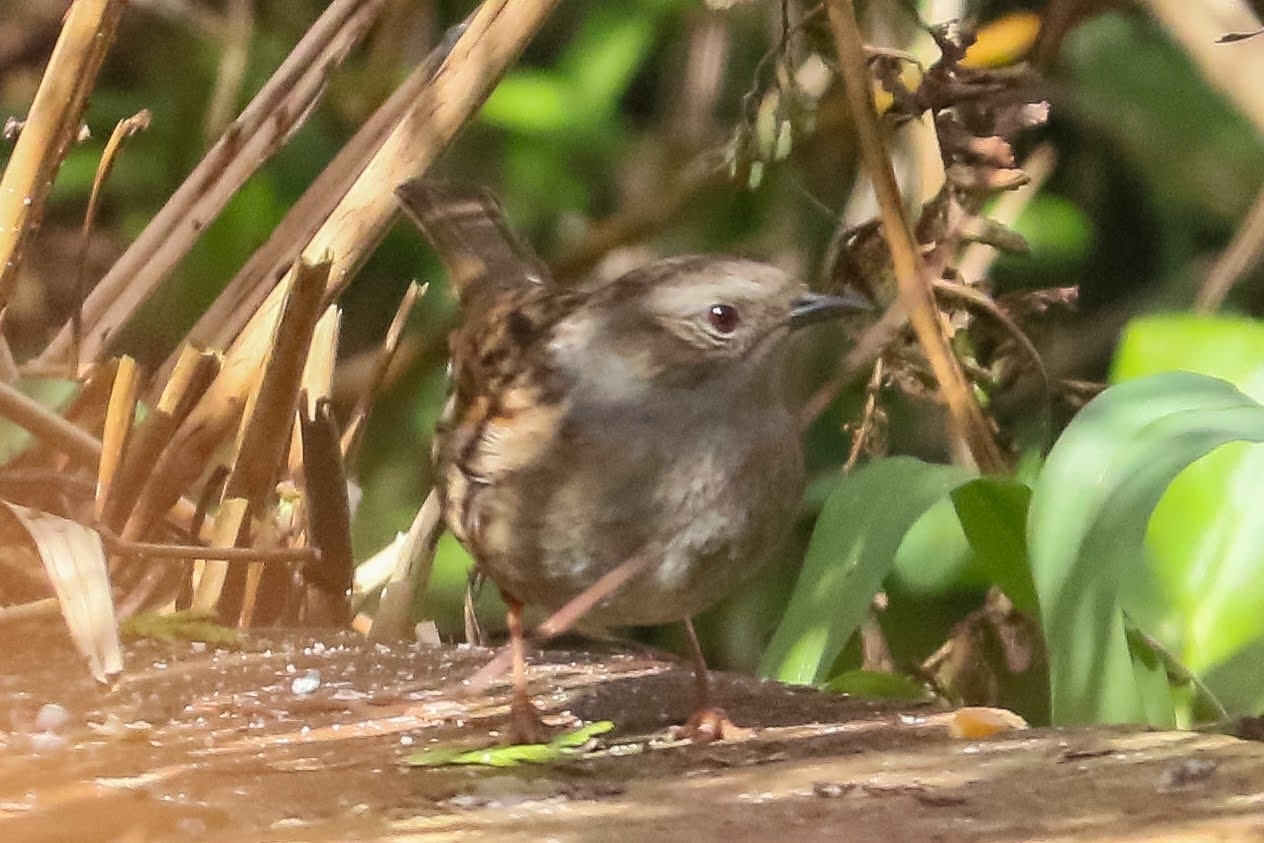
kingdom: Animalia
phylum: Chordata
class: Aves
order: Passeriformes
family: Prunellidae
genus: Prunella
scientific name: Prunella modularis
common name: Dunnock
